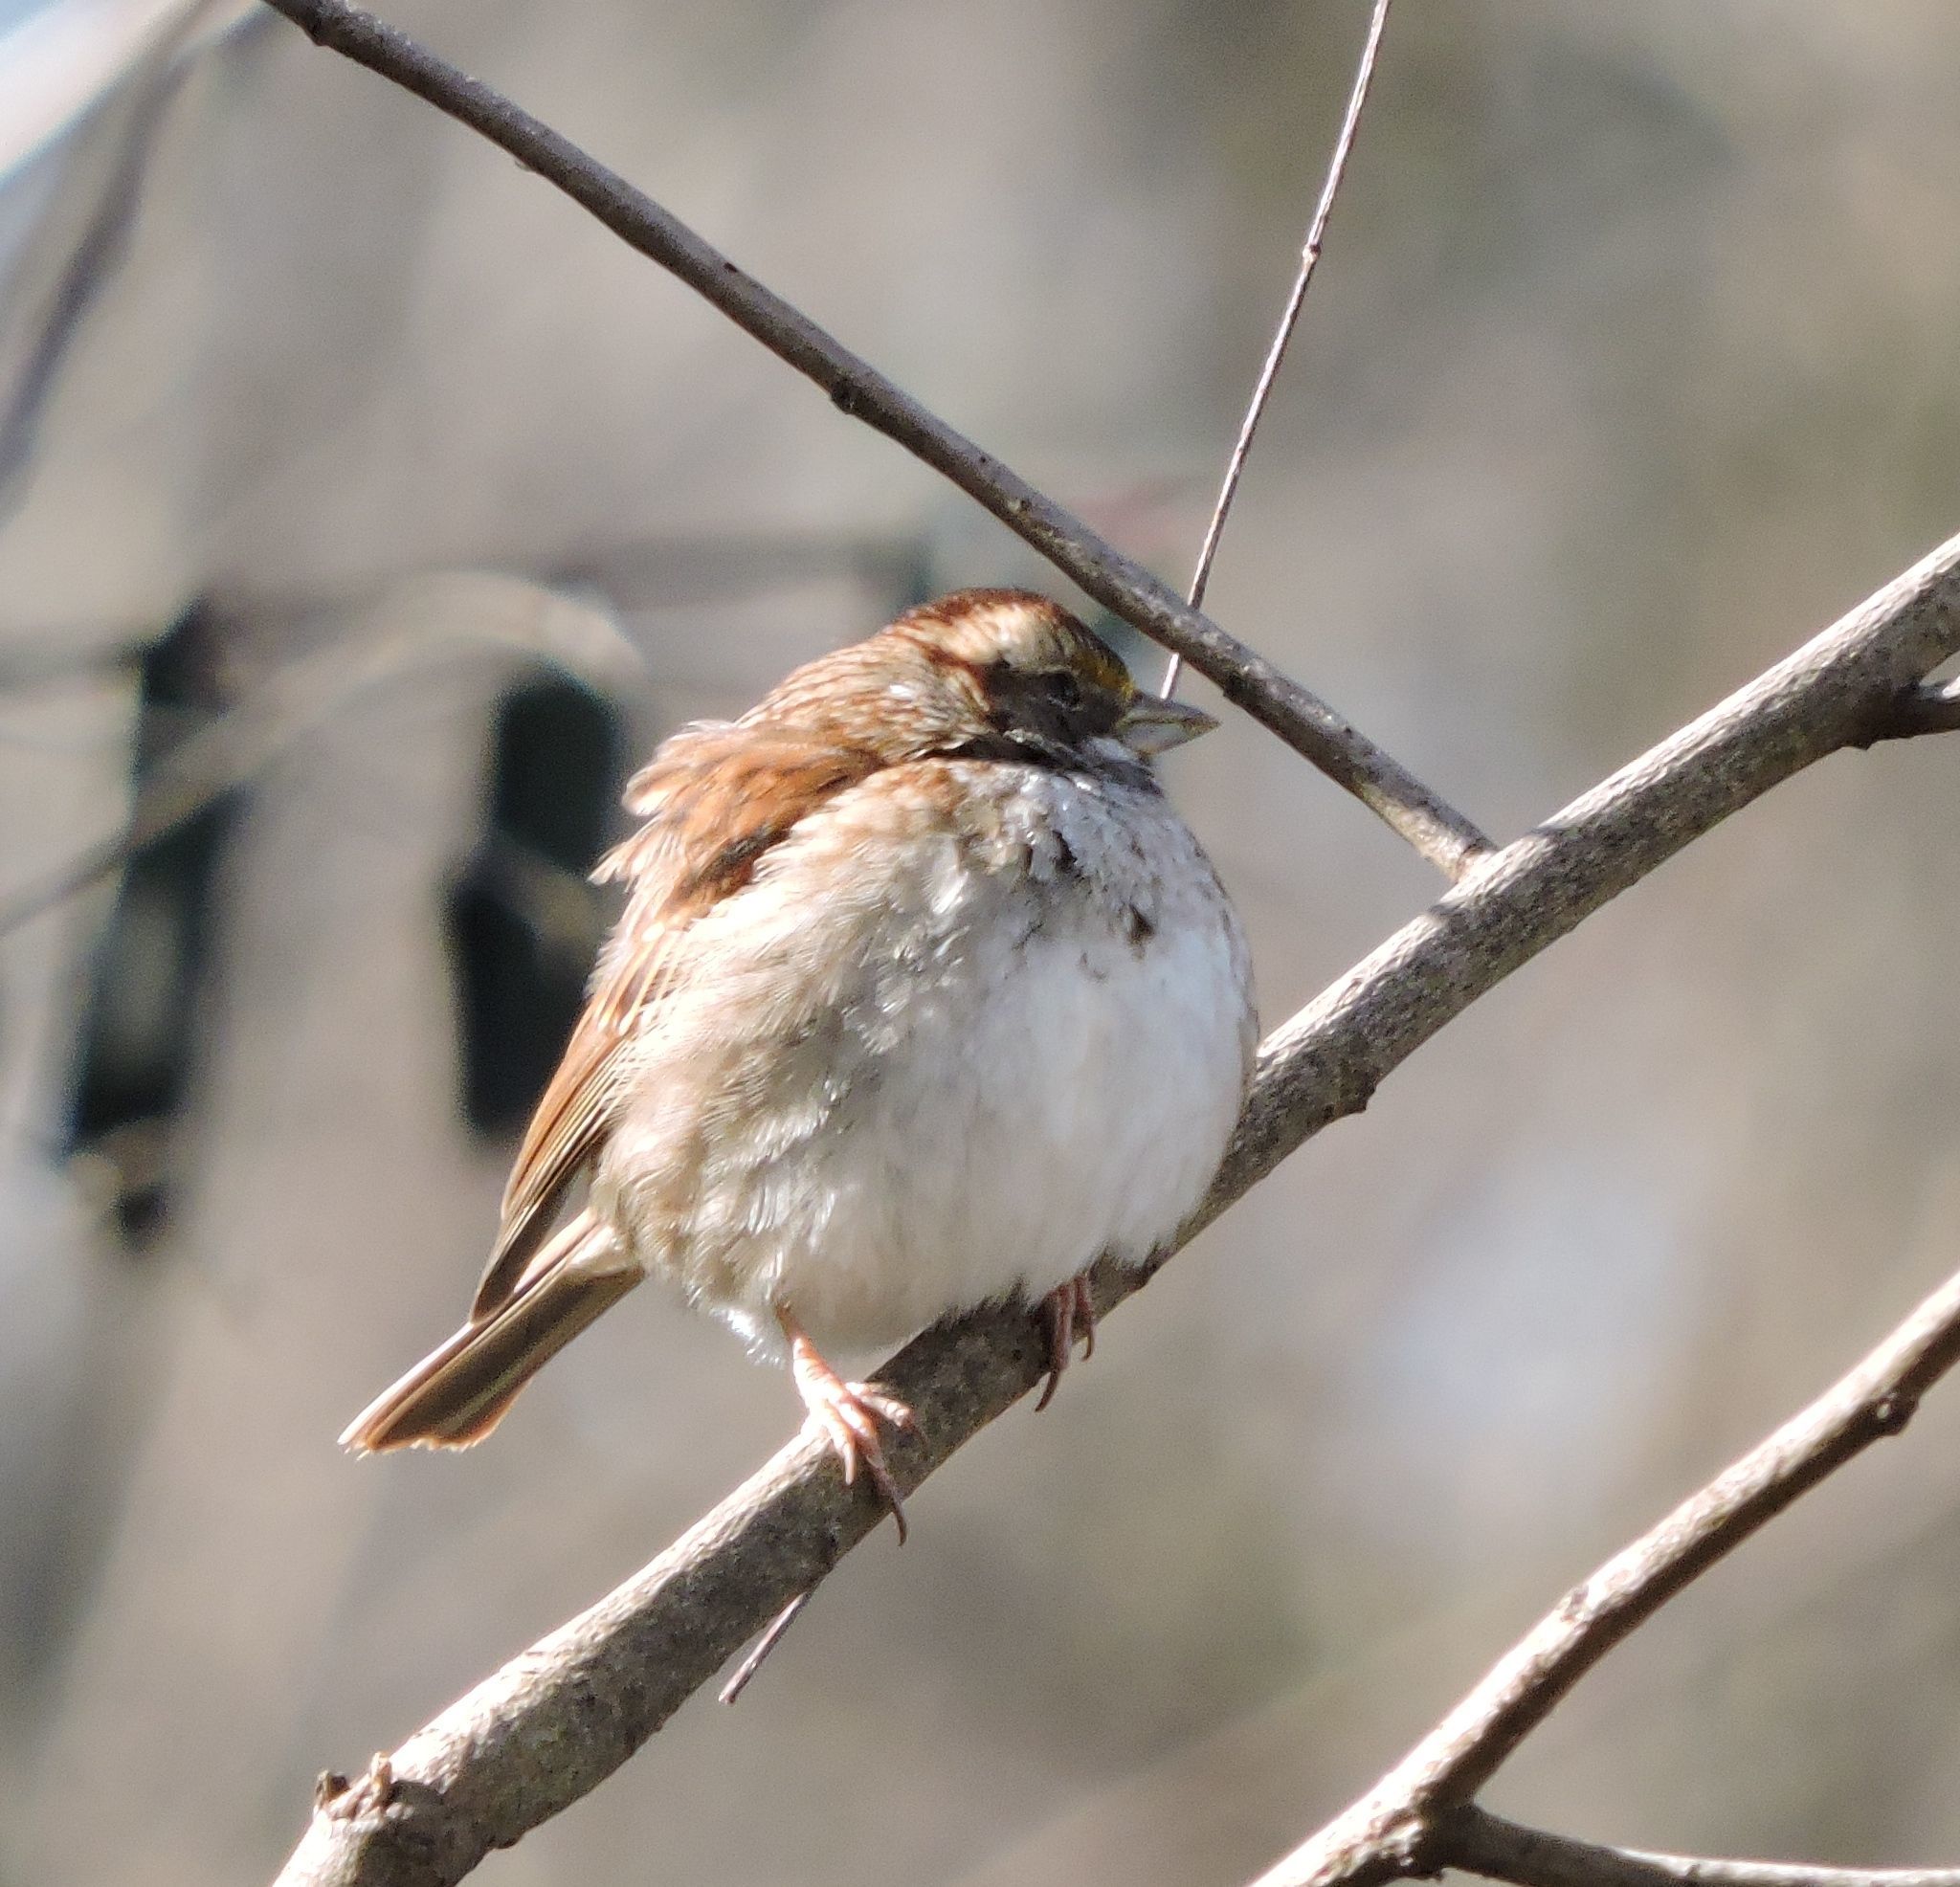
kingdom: Animalia
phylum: Chordata
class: Aves
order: Passeriformes
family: Passerellidae
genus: Zonotrichia
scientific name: Zonotrichia albicollis
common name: White-throated sparrow
